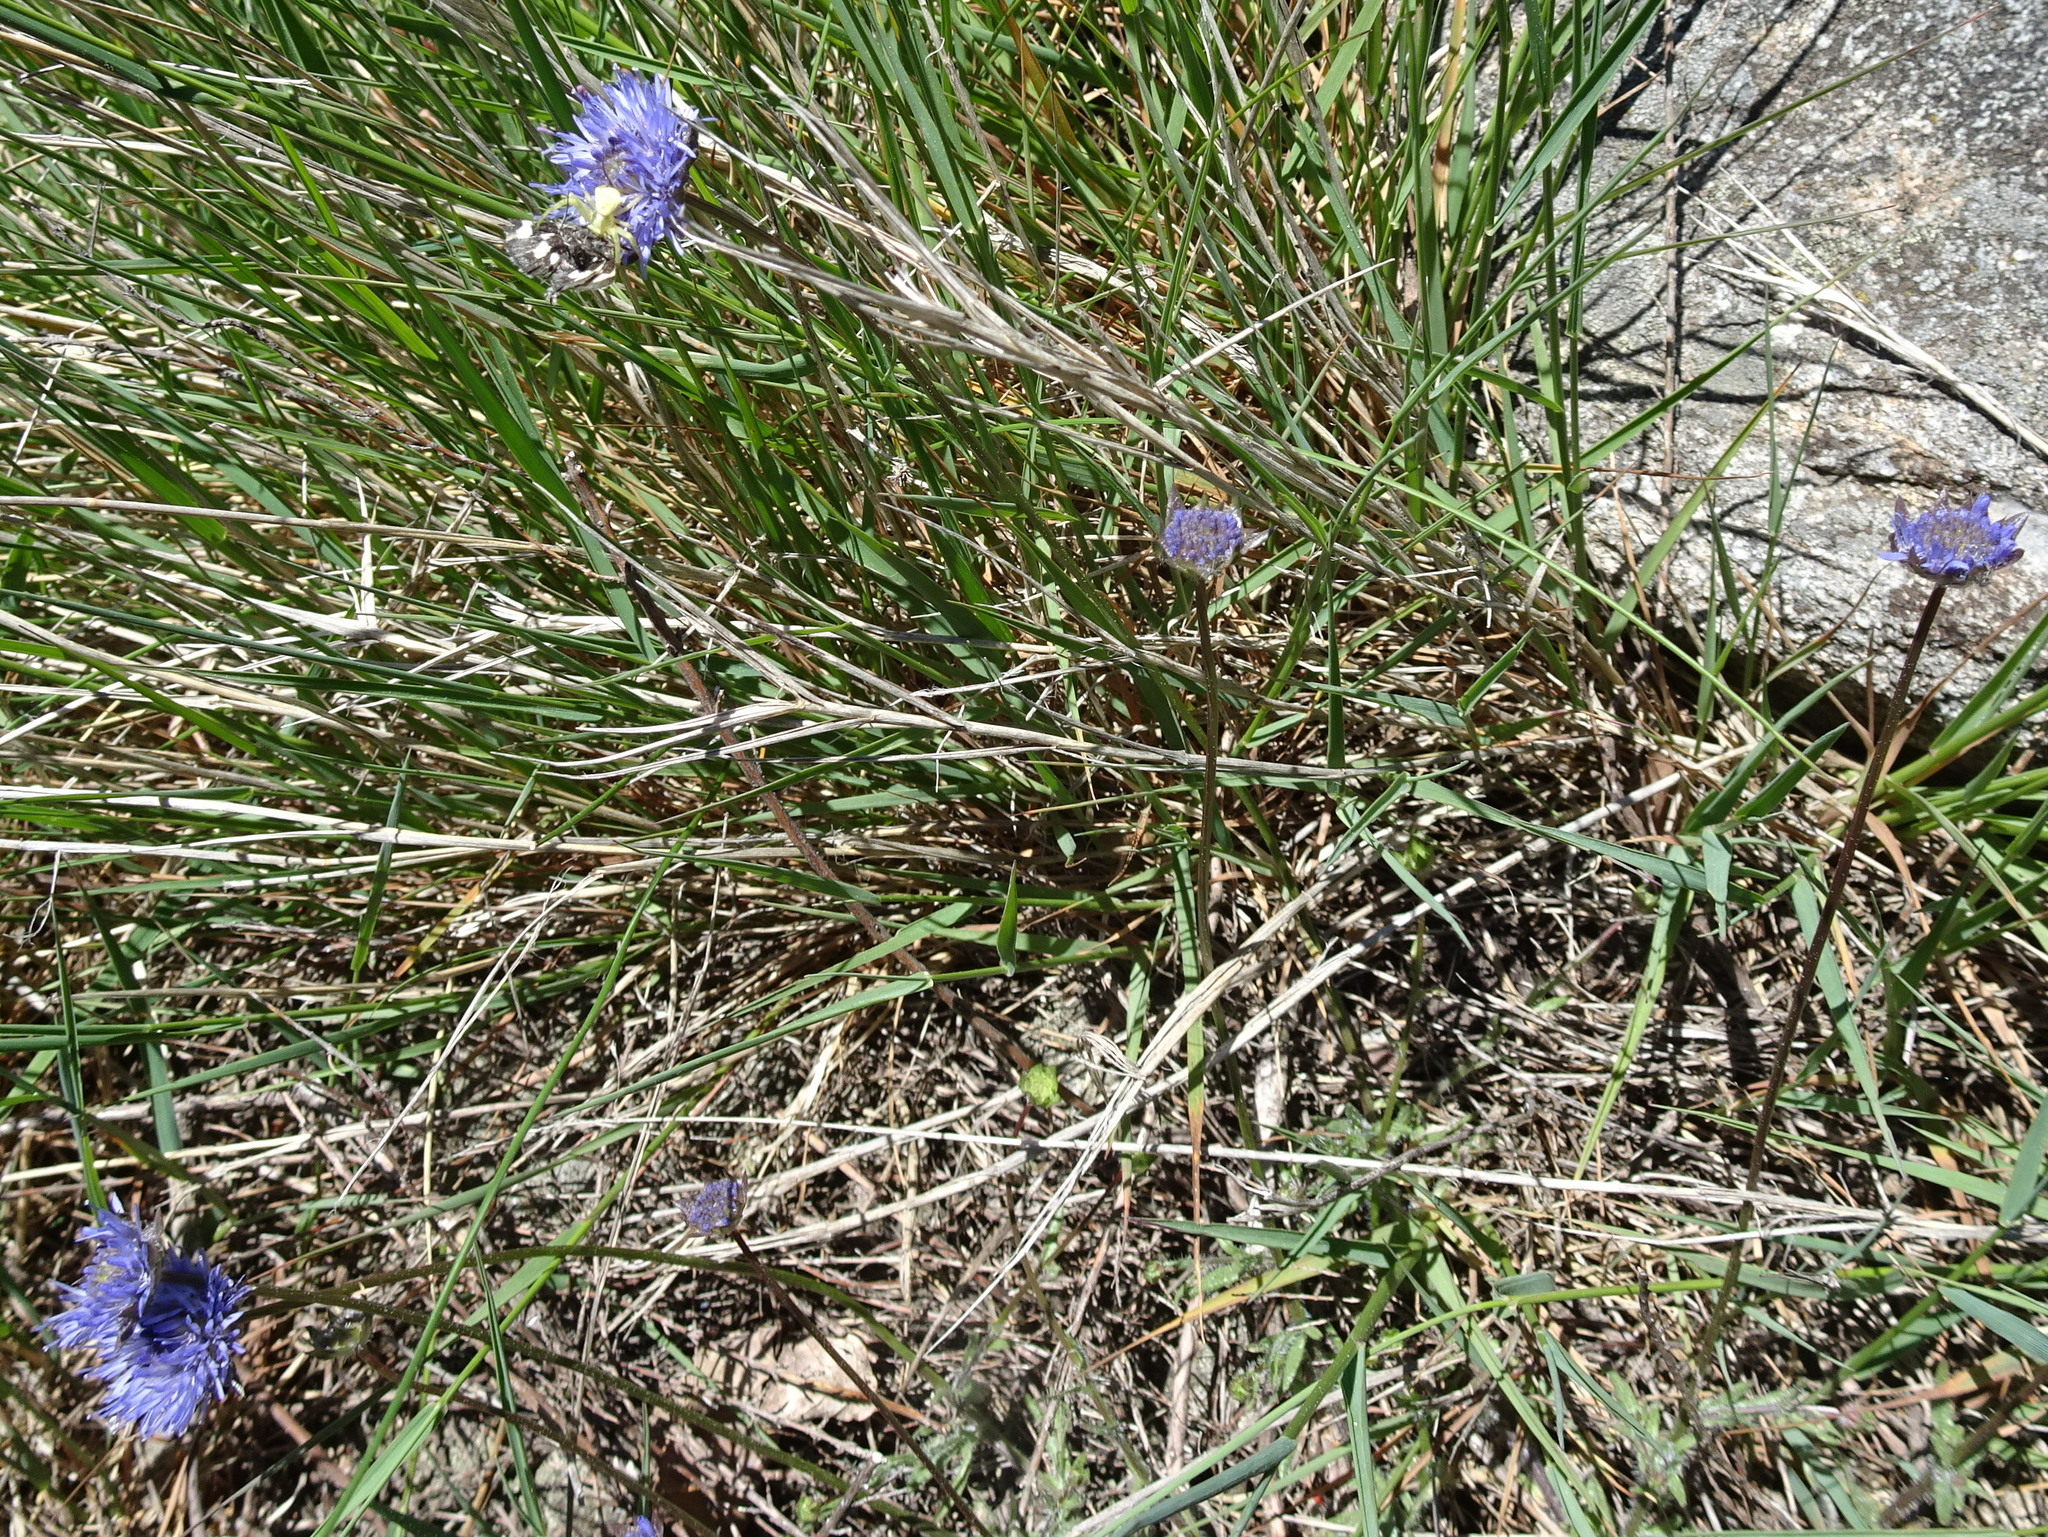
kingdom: Plantae
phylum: Tracheophyta
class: Magnoliopsida
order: Asterales
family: Campanulaceae
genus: Jasione
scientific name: Jasione montana
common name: Sheep's-bit
